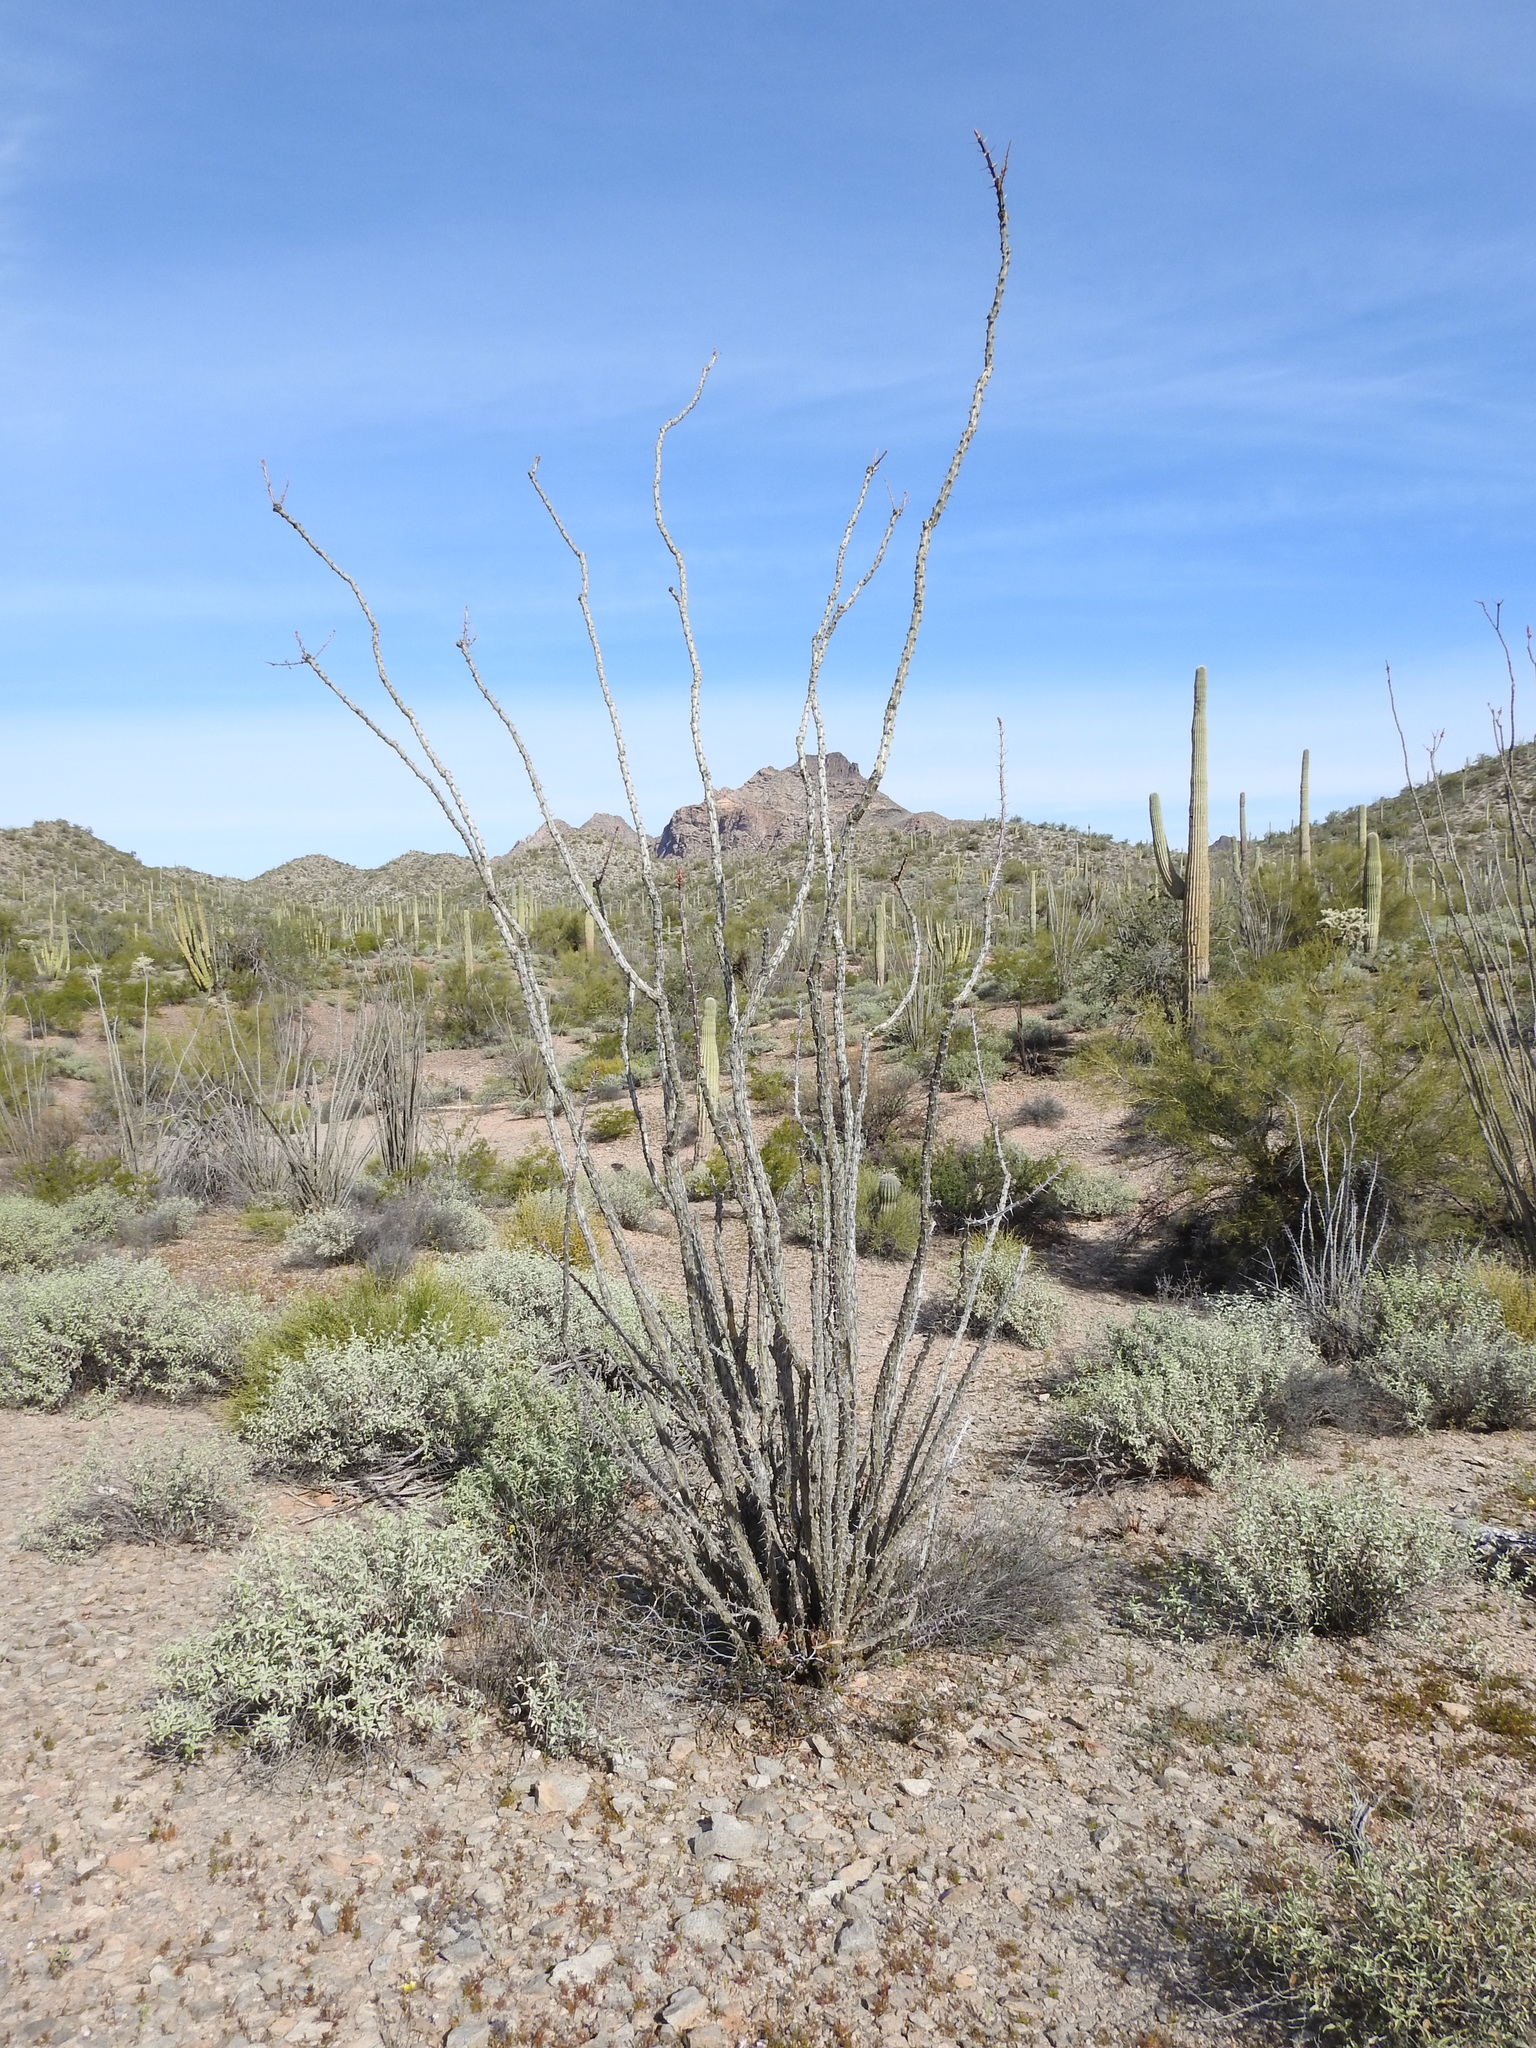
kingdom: Plantae
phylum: Tracheophyta
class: Magnoliopsida
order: Ericales
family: Fouquieriaceae
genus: Fouquieria
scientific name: Fouquieria splendens
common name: Vine-cactus
